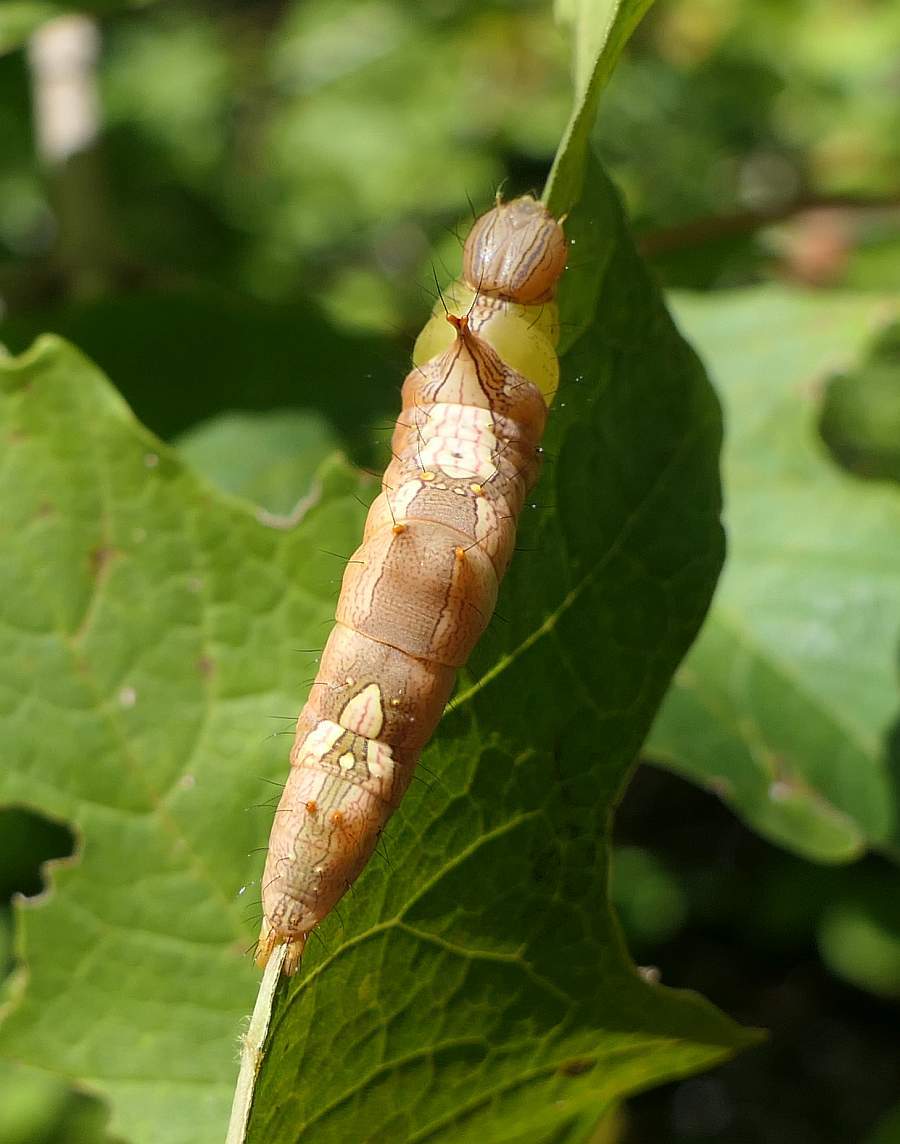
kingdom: Animalia
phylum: Arthropoda
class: Insecta
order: Lepidoptera
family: Notodontidae
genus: Schizura
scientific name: Schizura ipomaeae
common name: Morning-glory prominent
